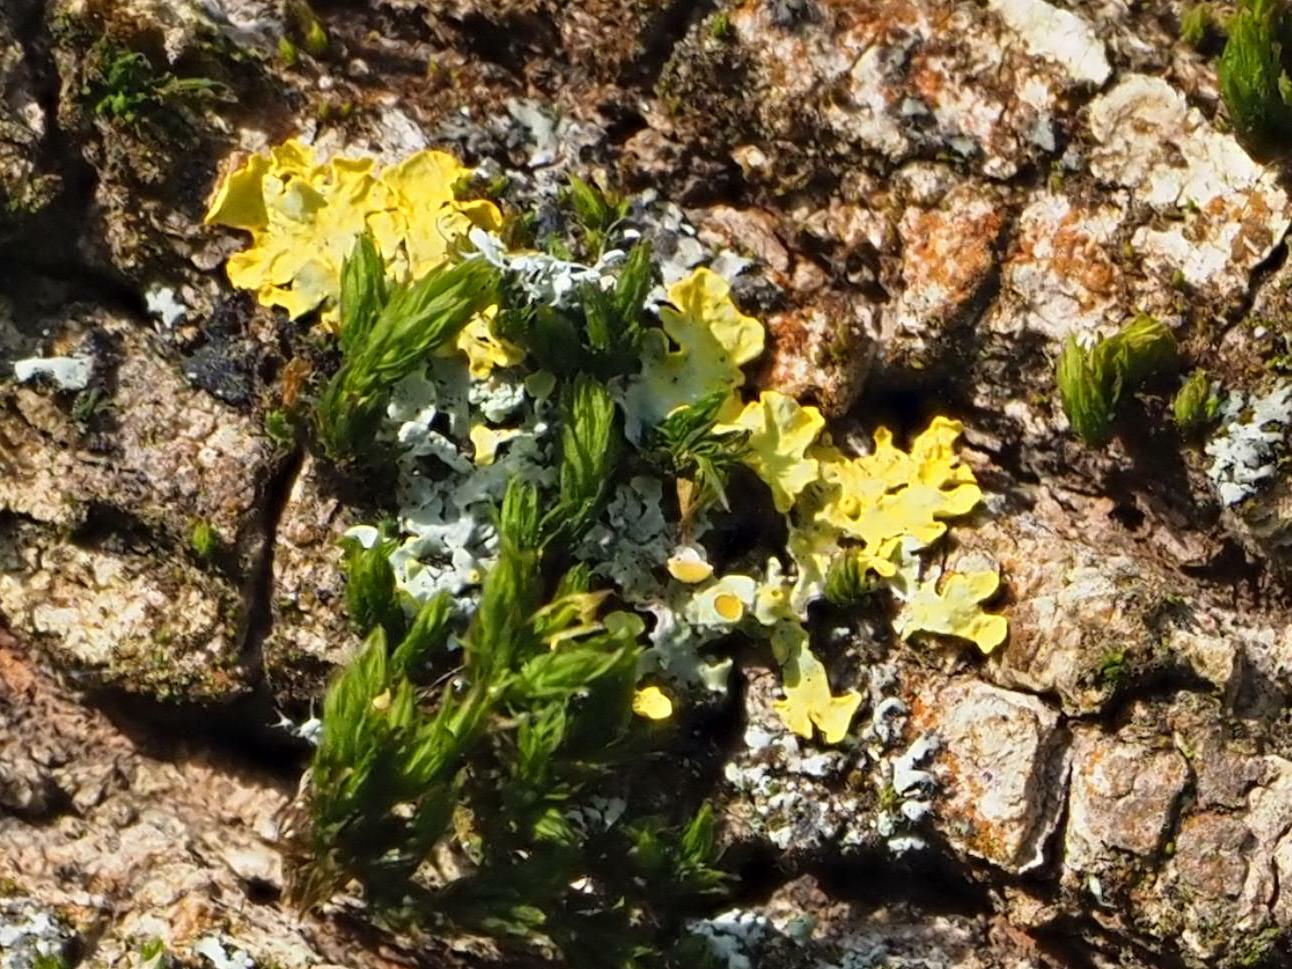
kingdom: Fungi
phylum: Ascomycota
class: Lecanoromycetes
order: Teloschistales
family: Teloschistaceae
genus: Xanthoria
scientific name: Xanthoria parietina
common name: Common orange lichen
